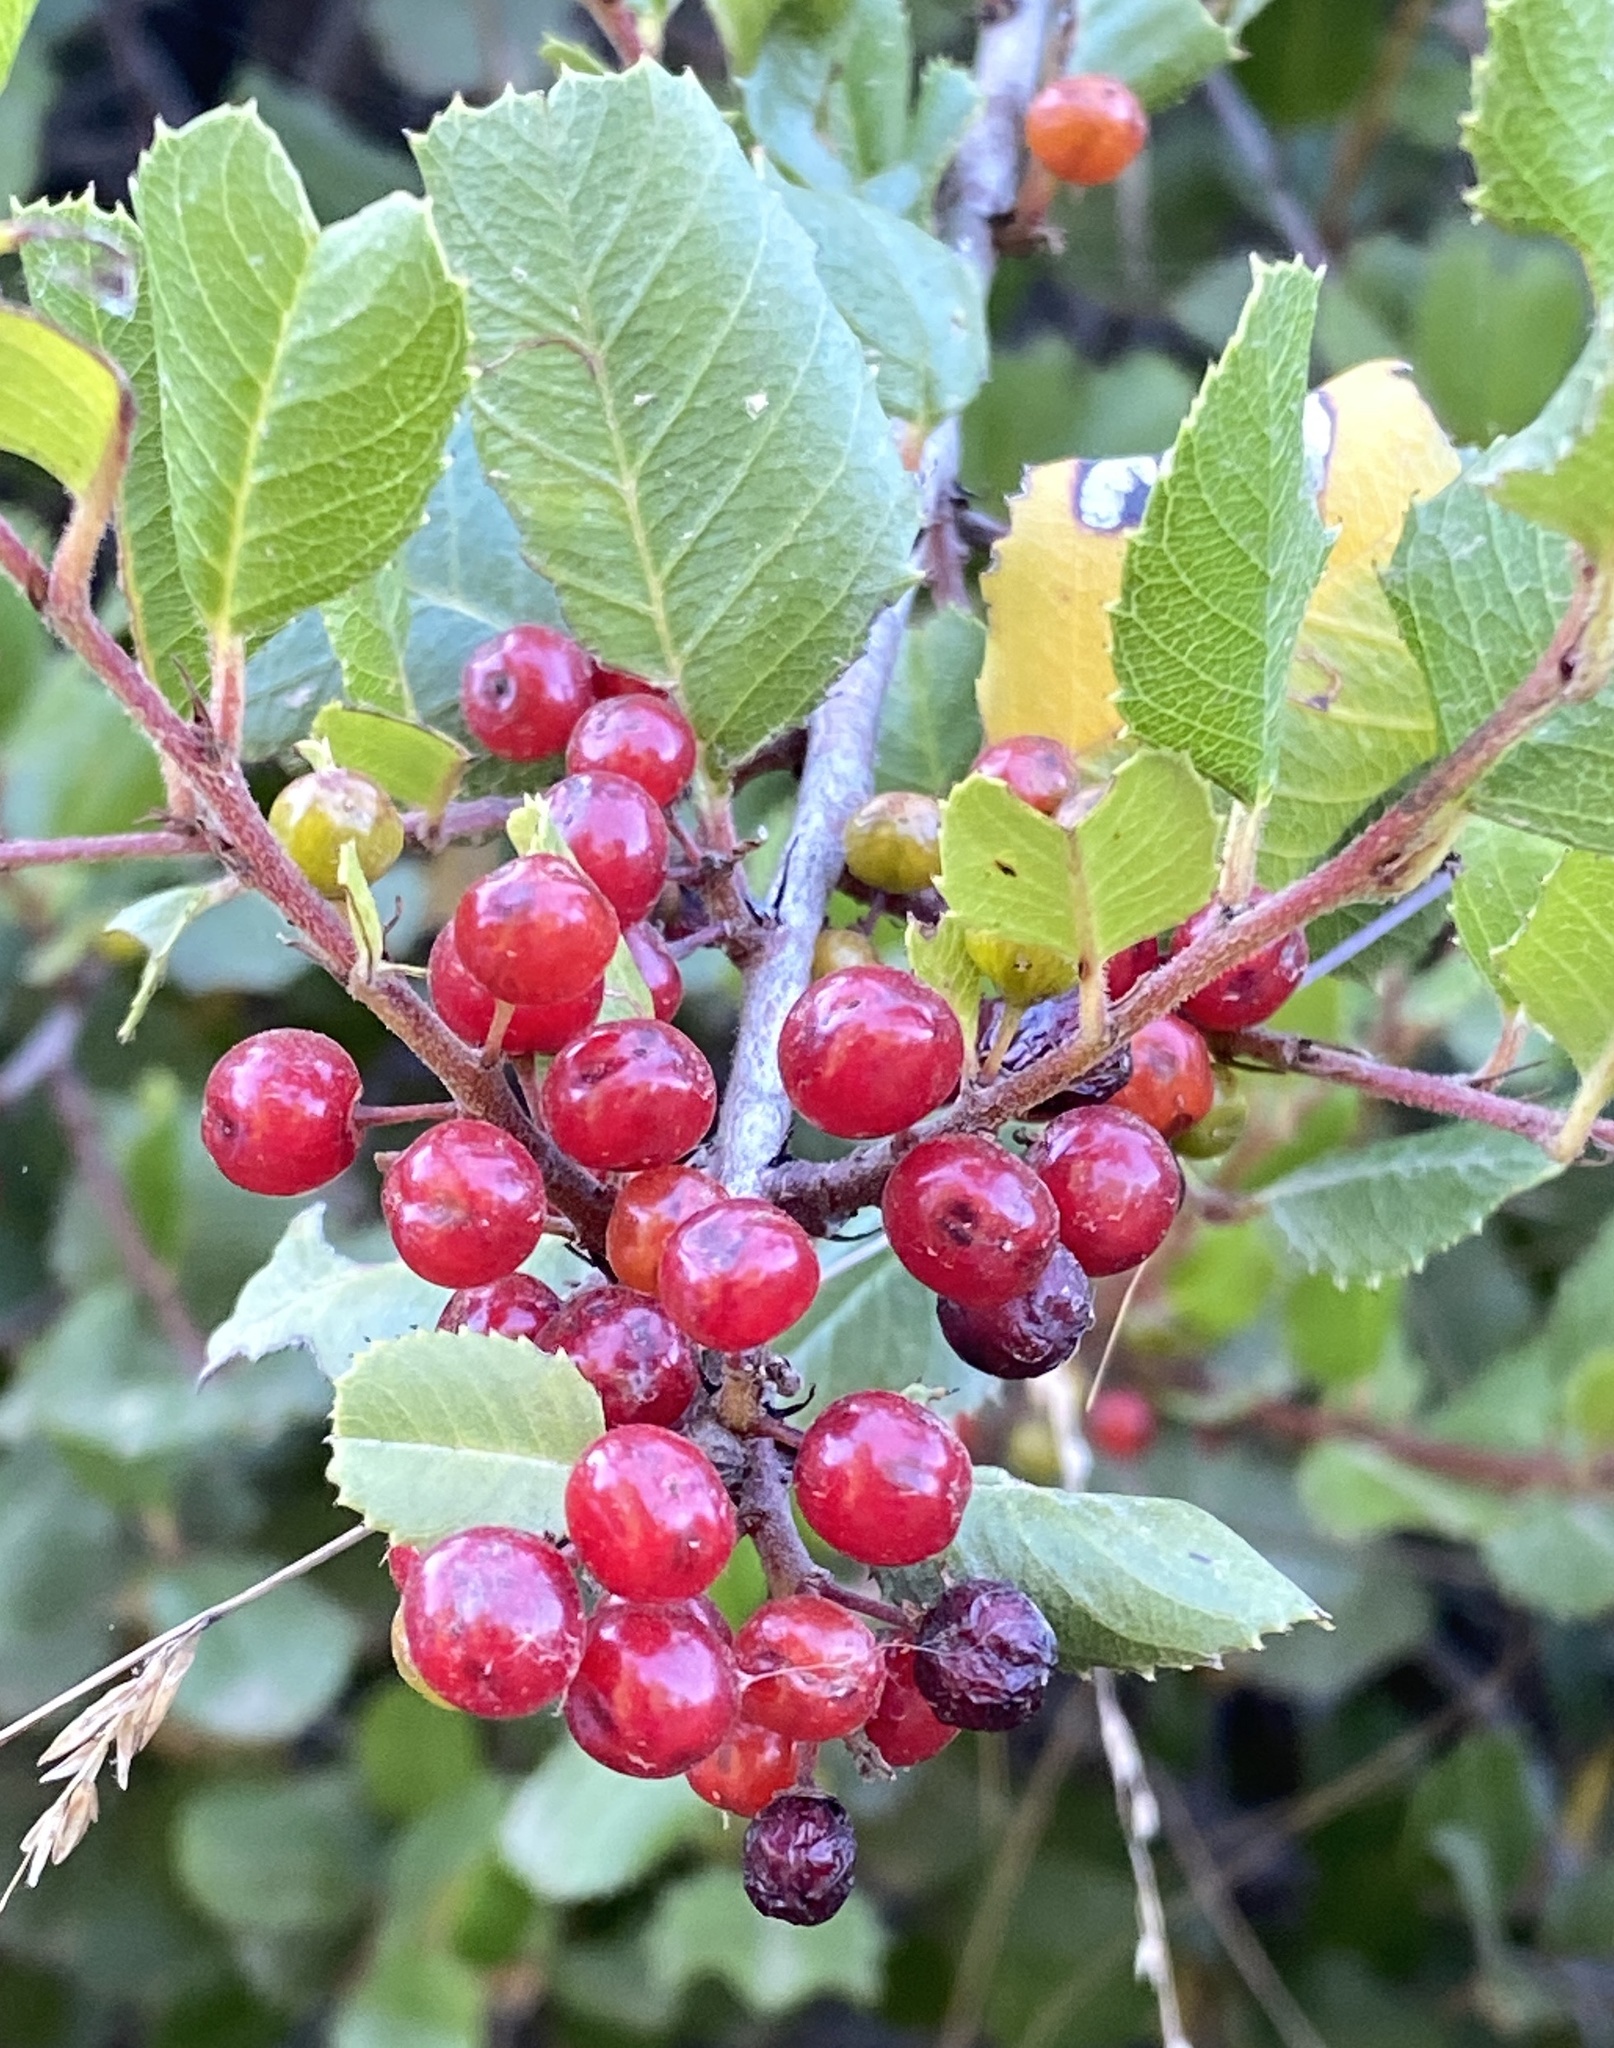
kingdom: Plantae
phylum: Tracheophyta
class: Magnoliopsida
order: Rosales
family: Rhamnaceae
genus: Endotropis
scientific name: Endotropis crocea
